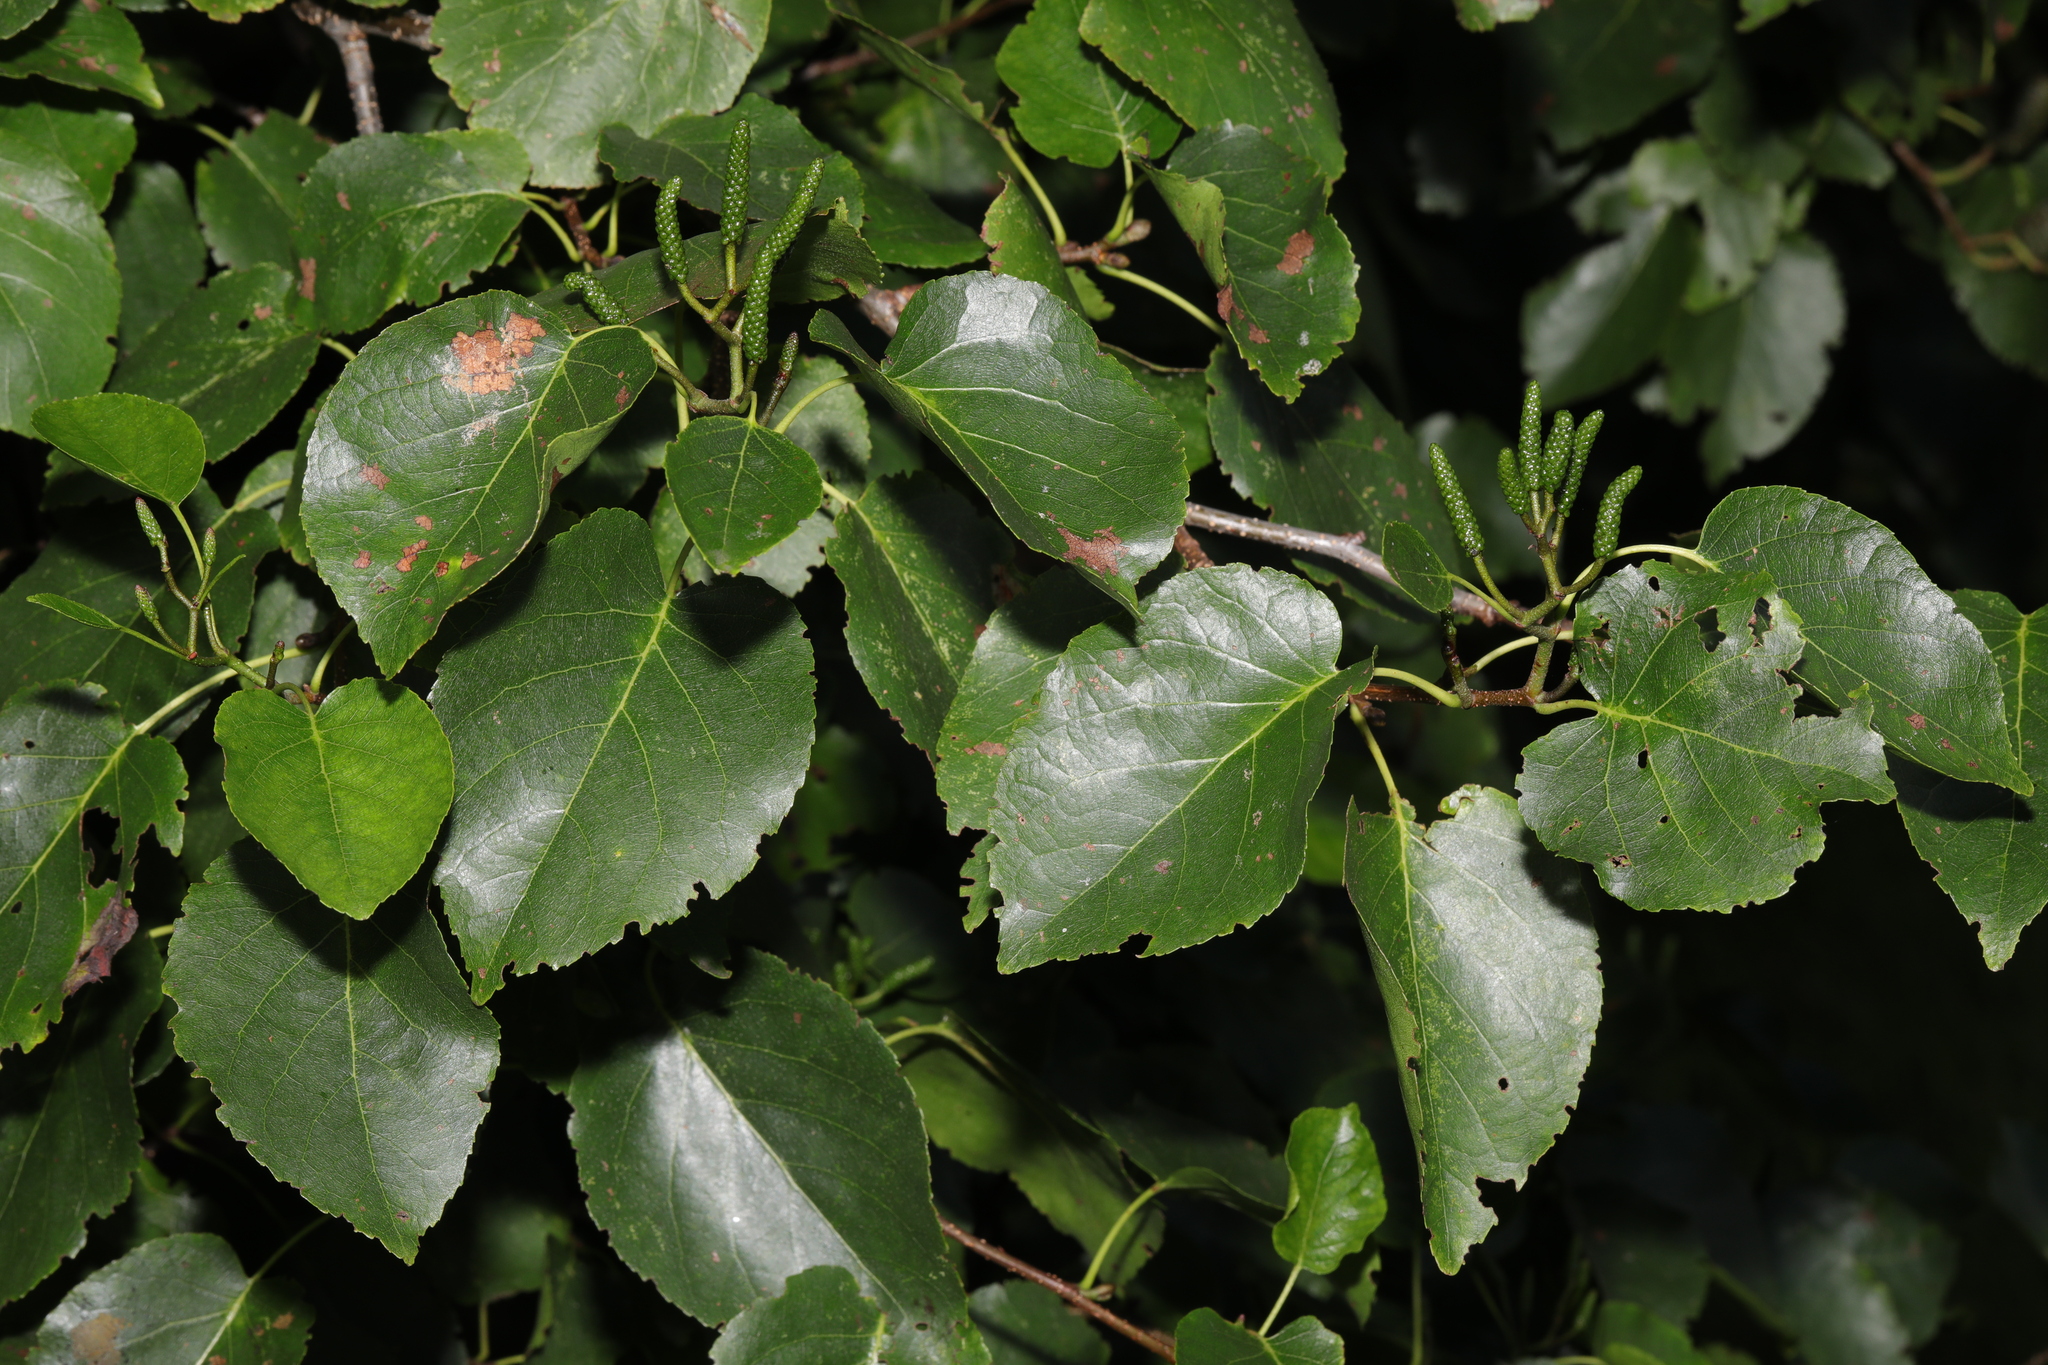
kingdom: Plantae
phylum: Tracheophyta
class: Magnoliopsida
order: Fagales
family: Betulaceae
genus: Alnus
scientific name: Alnus cordata
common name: Italian alder
